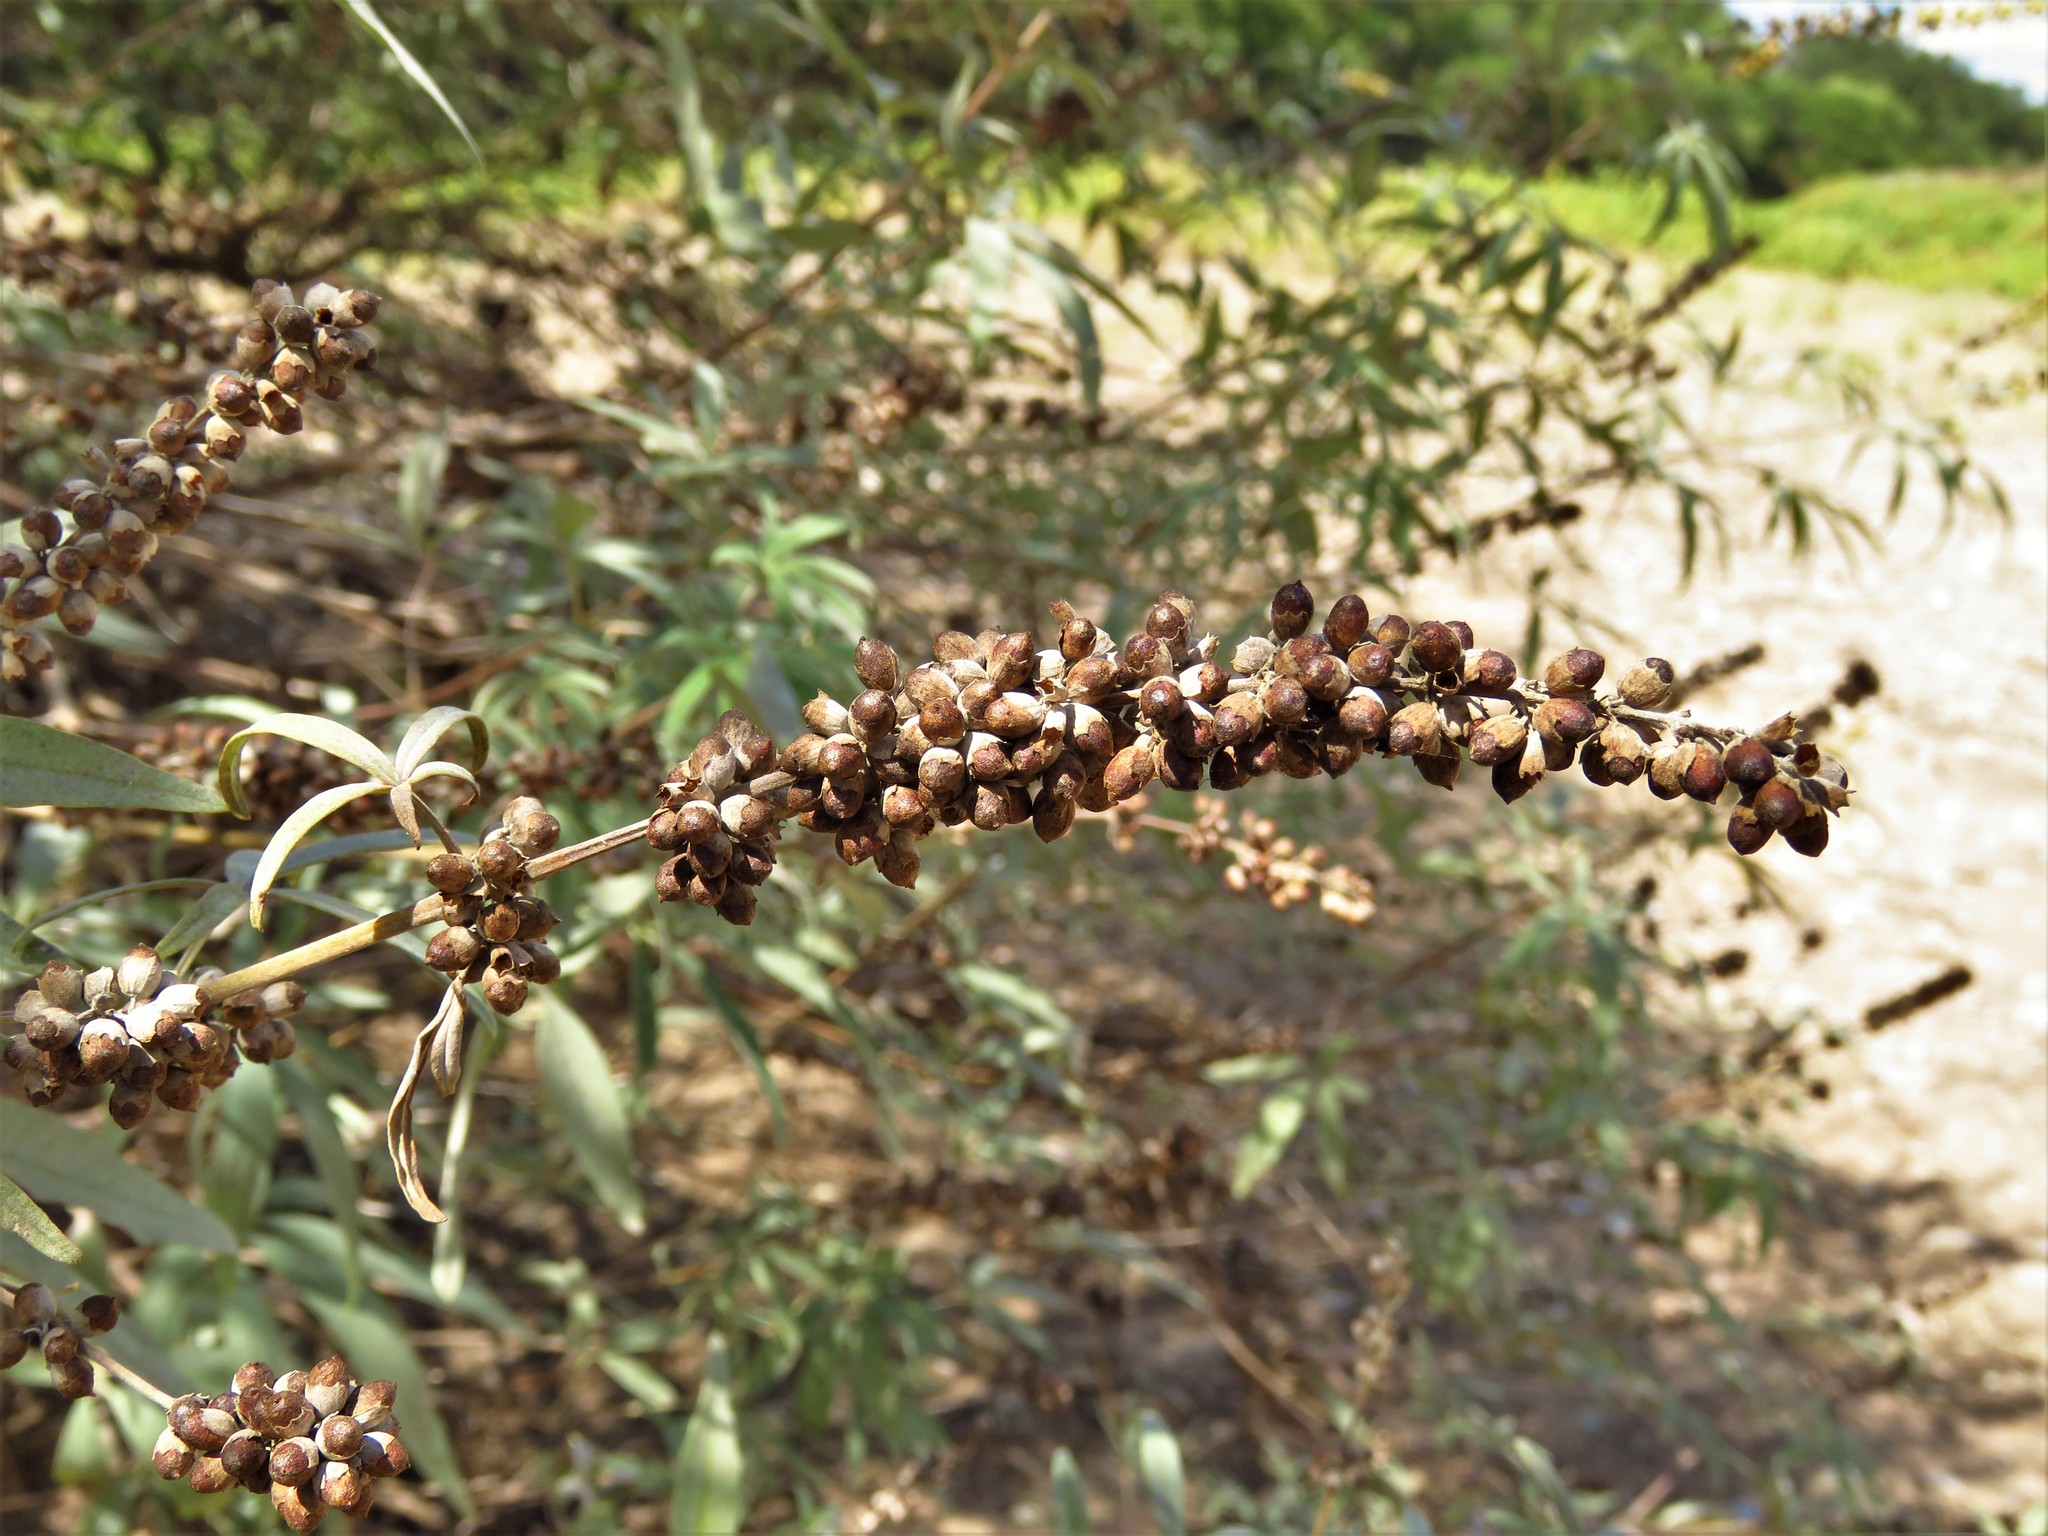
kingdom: Plantae
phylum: Tracheophyta
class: Magnoliopsida
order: Lamiales
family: Lamiaceae
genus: Vitex
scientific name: Vitex agnus-castus
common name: Chasteberry
